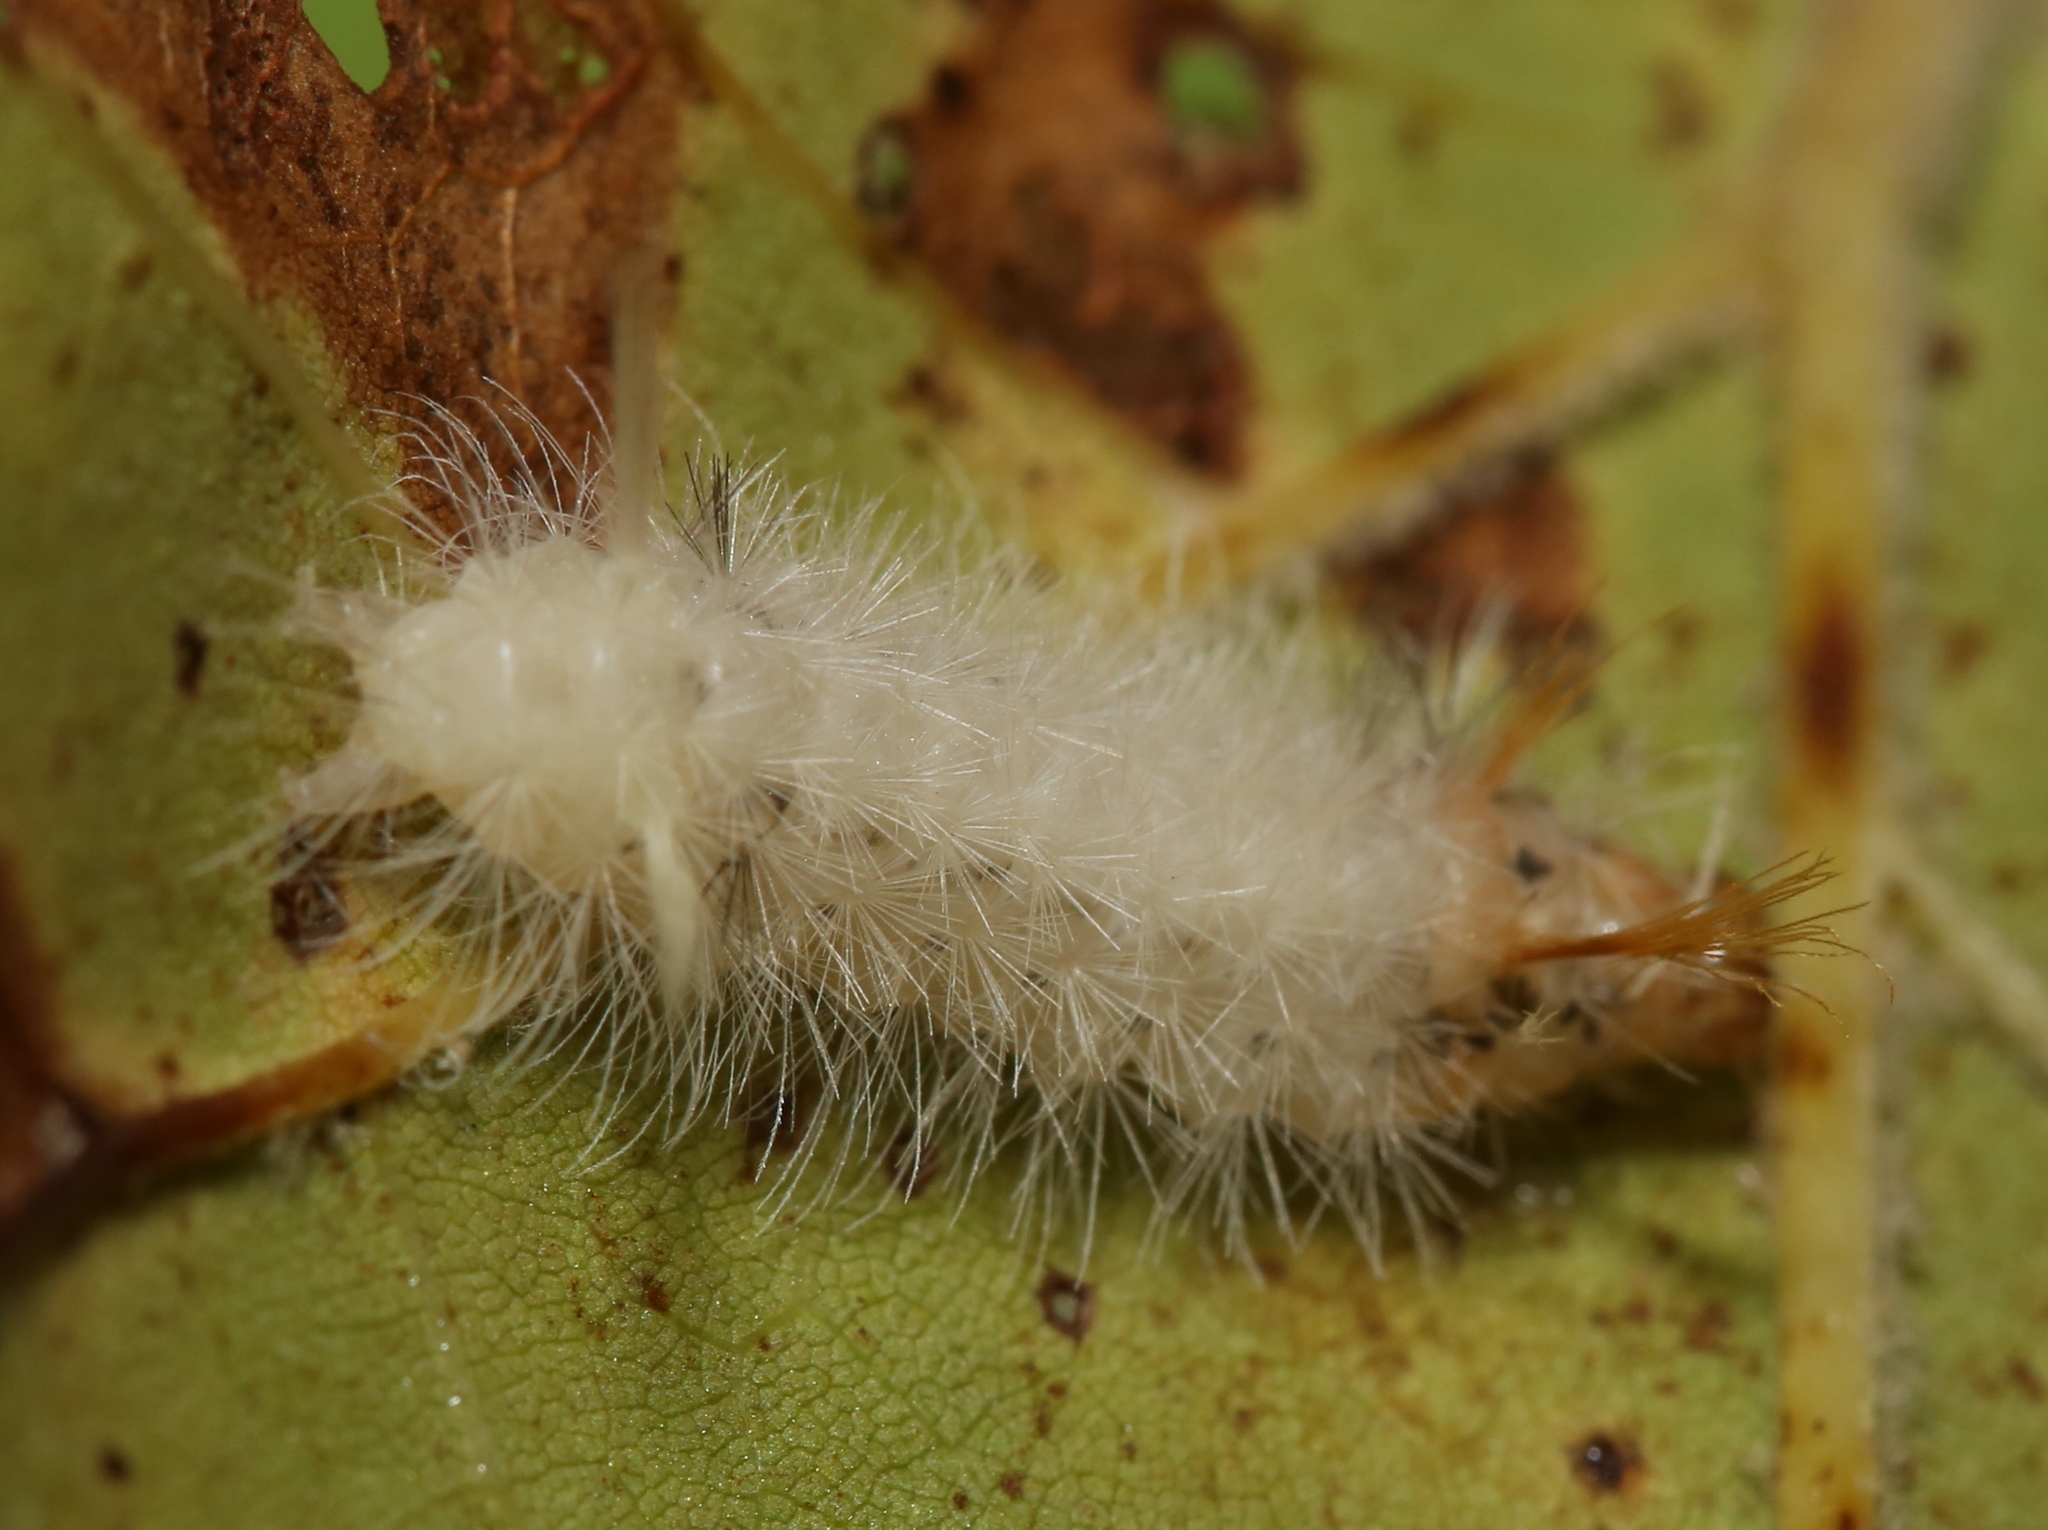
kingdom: Animalia
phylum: Arthropoda
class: Insecta
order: Lepidoptera
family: Erebidae
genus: Halysidota
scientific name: Halysidota harrisii
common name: Sycamore tussock moth
